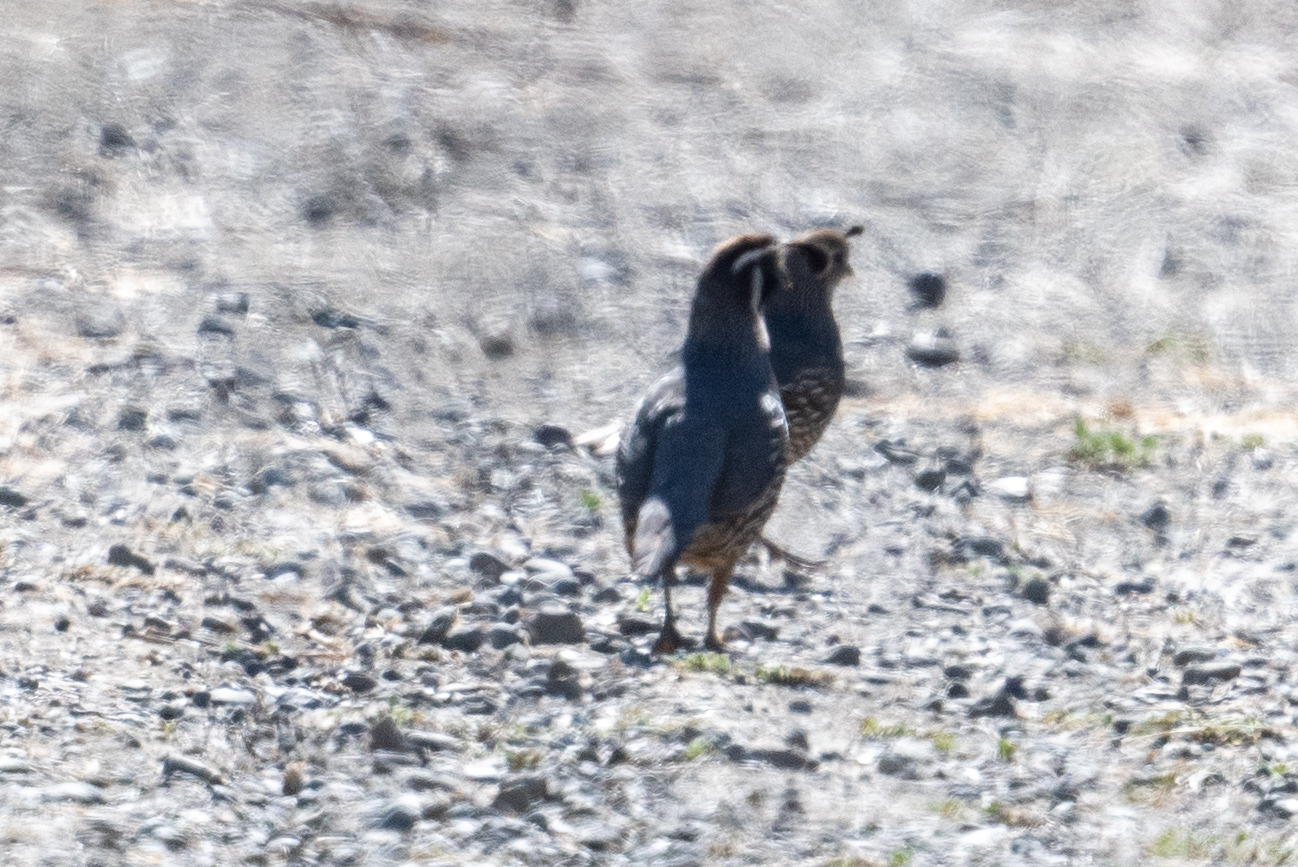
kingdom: Animalia
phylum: Chordata
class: Aves
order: Galliformes
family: Odontophoridae
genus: Callipepla
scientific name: Callipepla californica
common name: California quail
